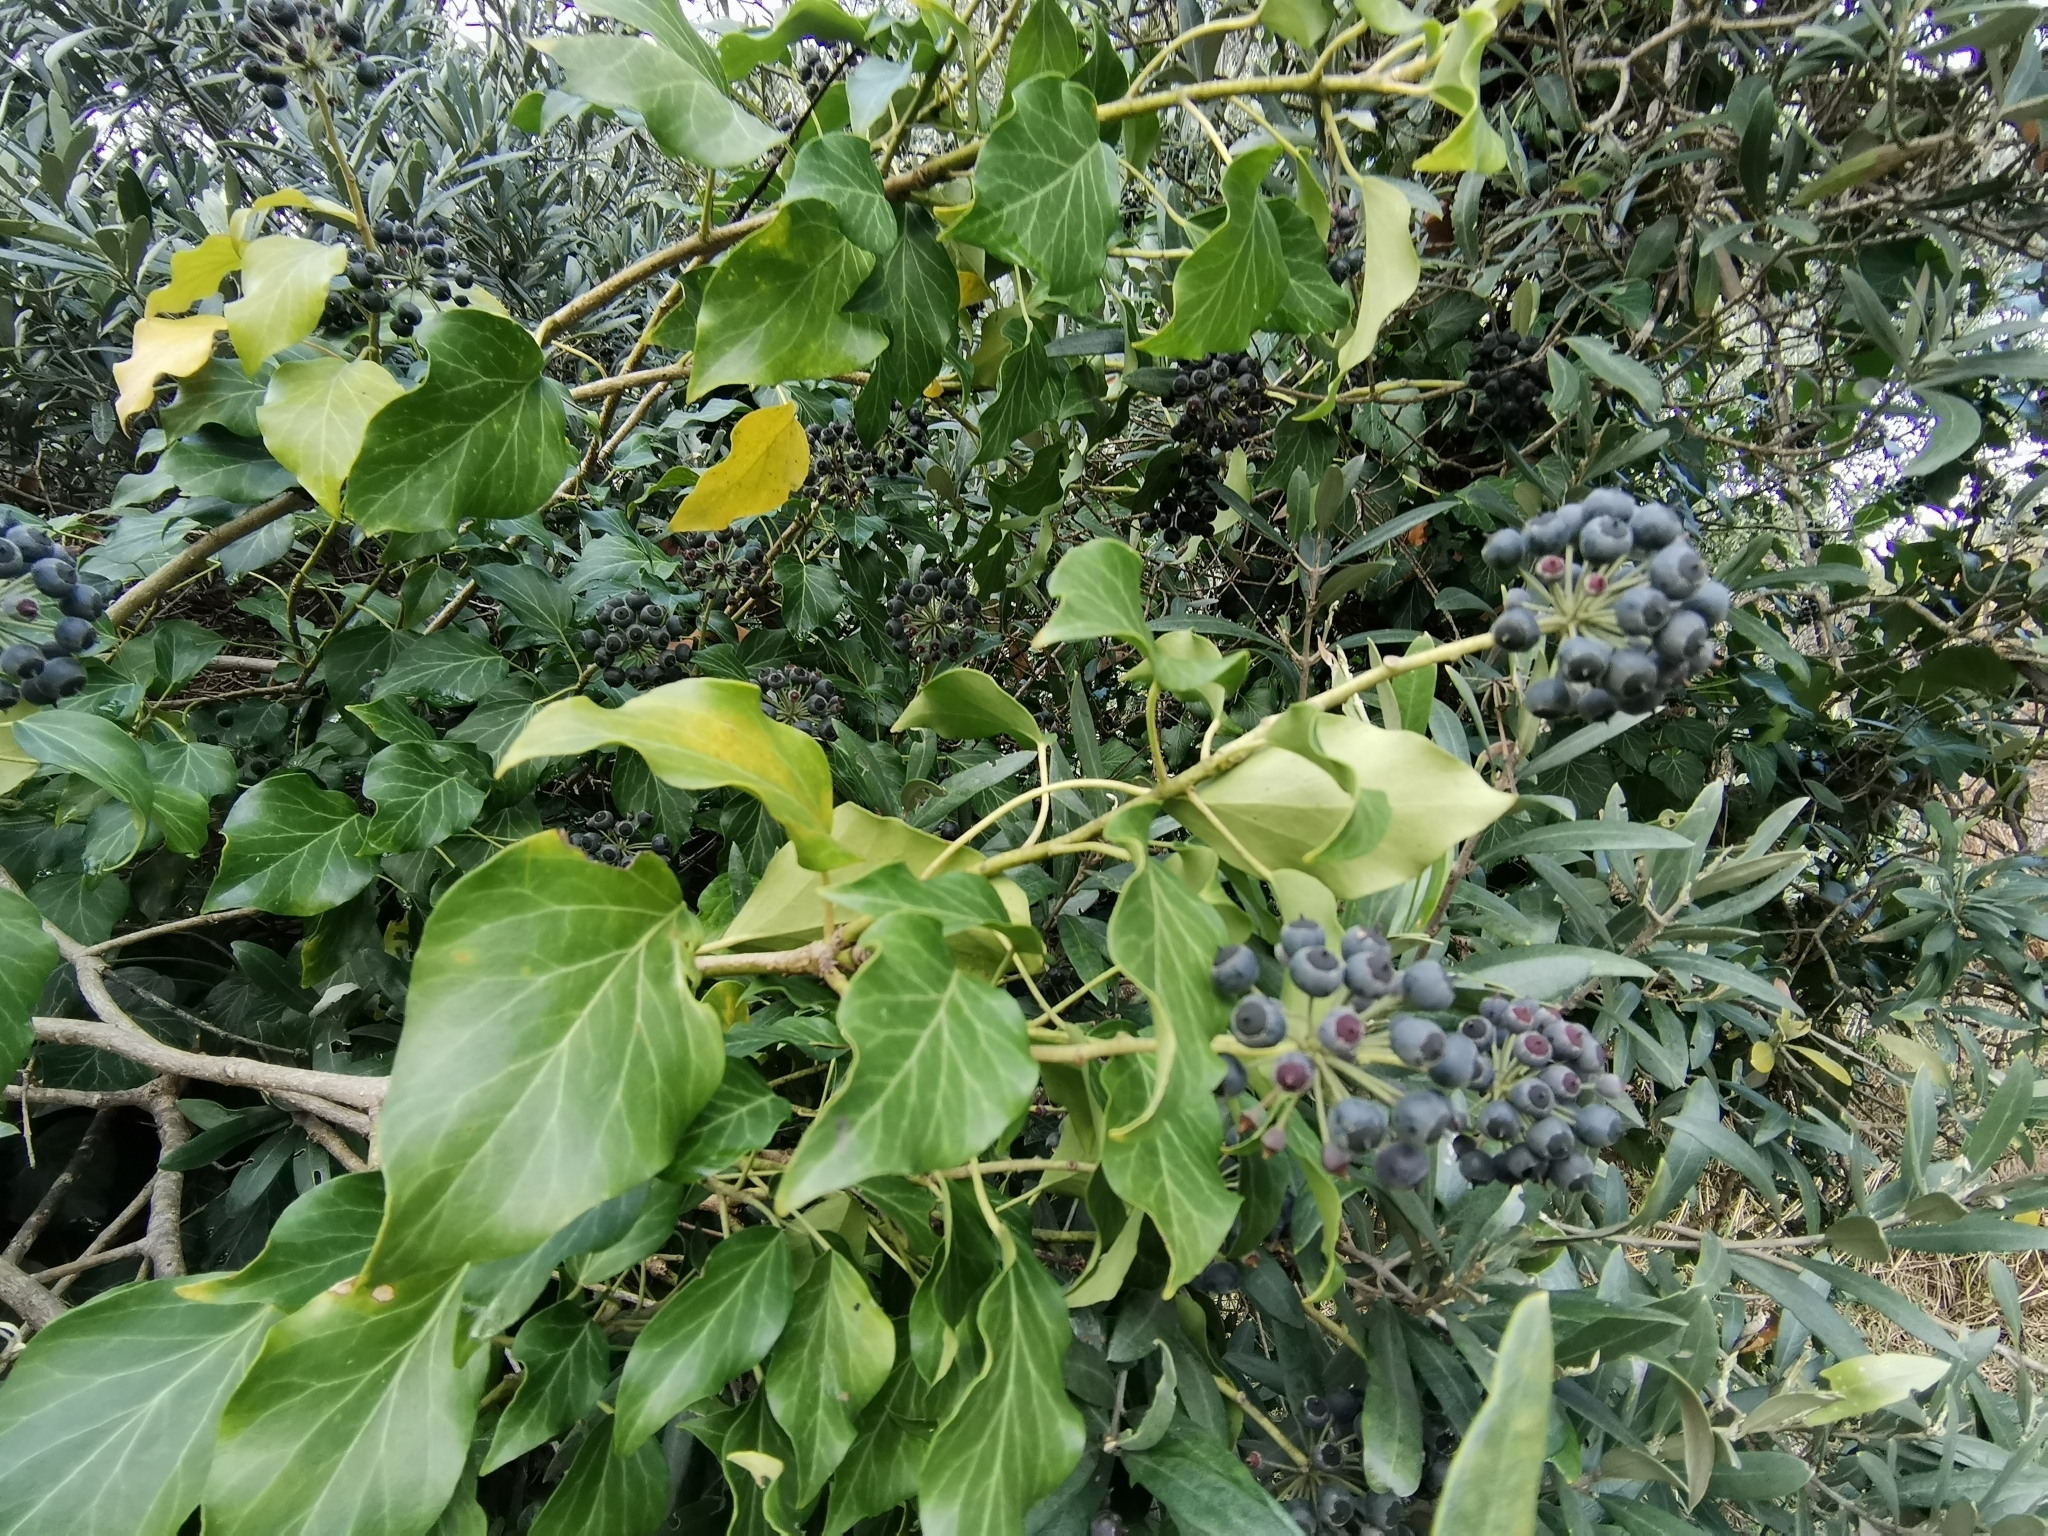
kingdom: Plantae
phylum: Tracheophyta
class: Magnoliopsida
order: Apiales
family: Araliaceae
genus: Hedera
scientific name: Hedera colchica
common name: Persian ivy
